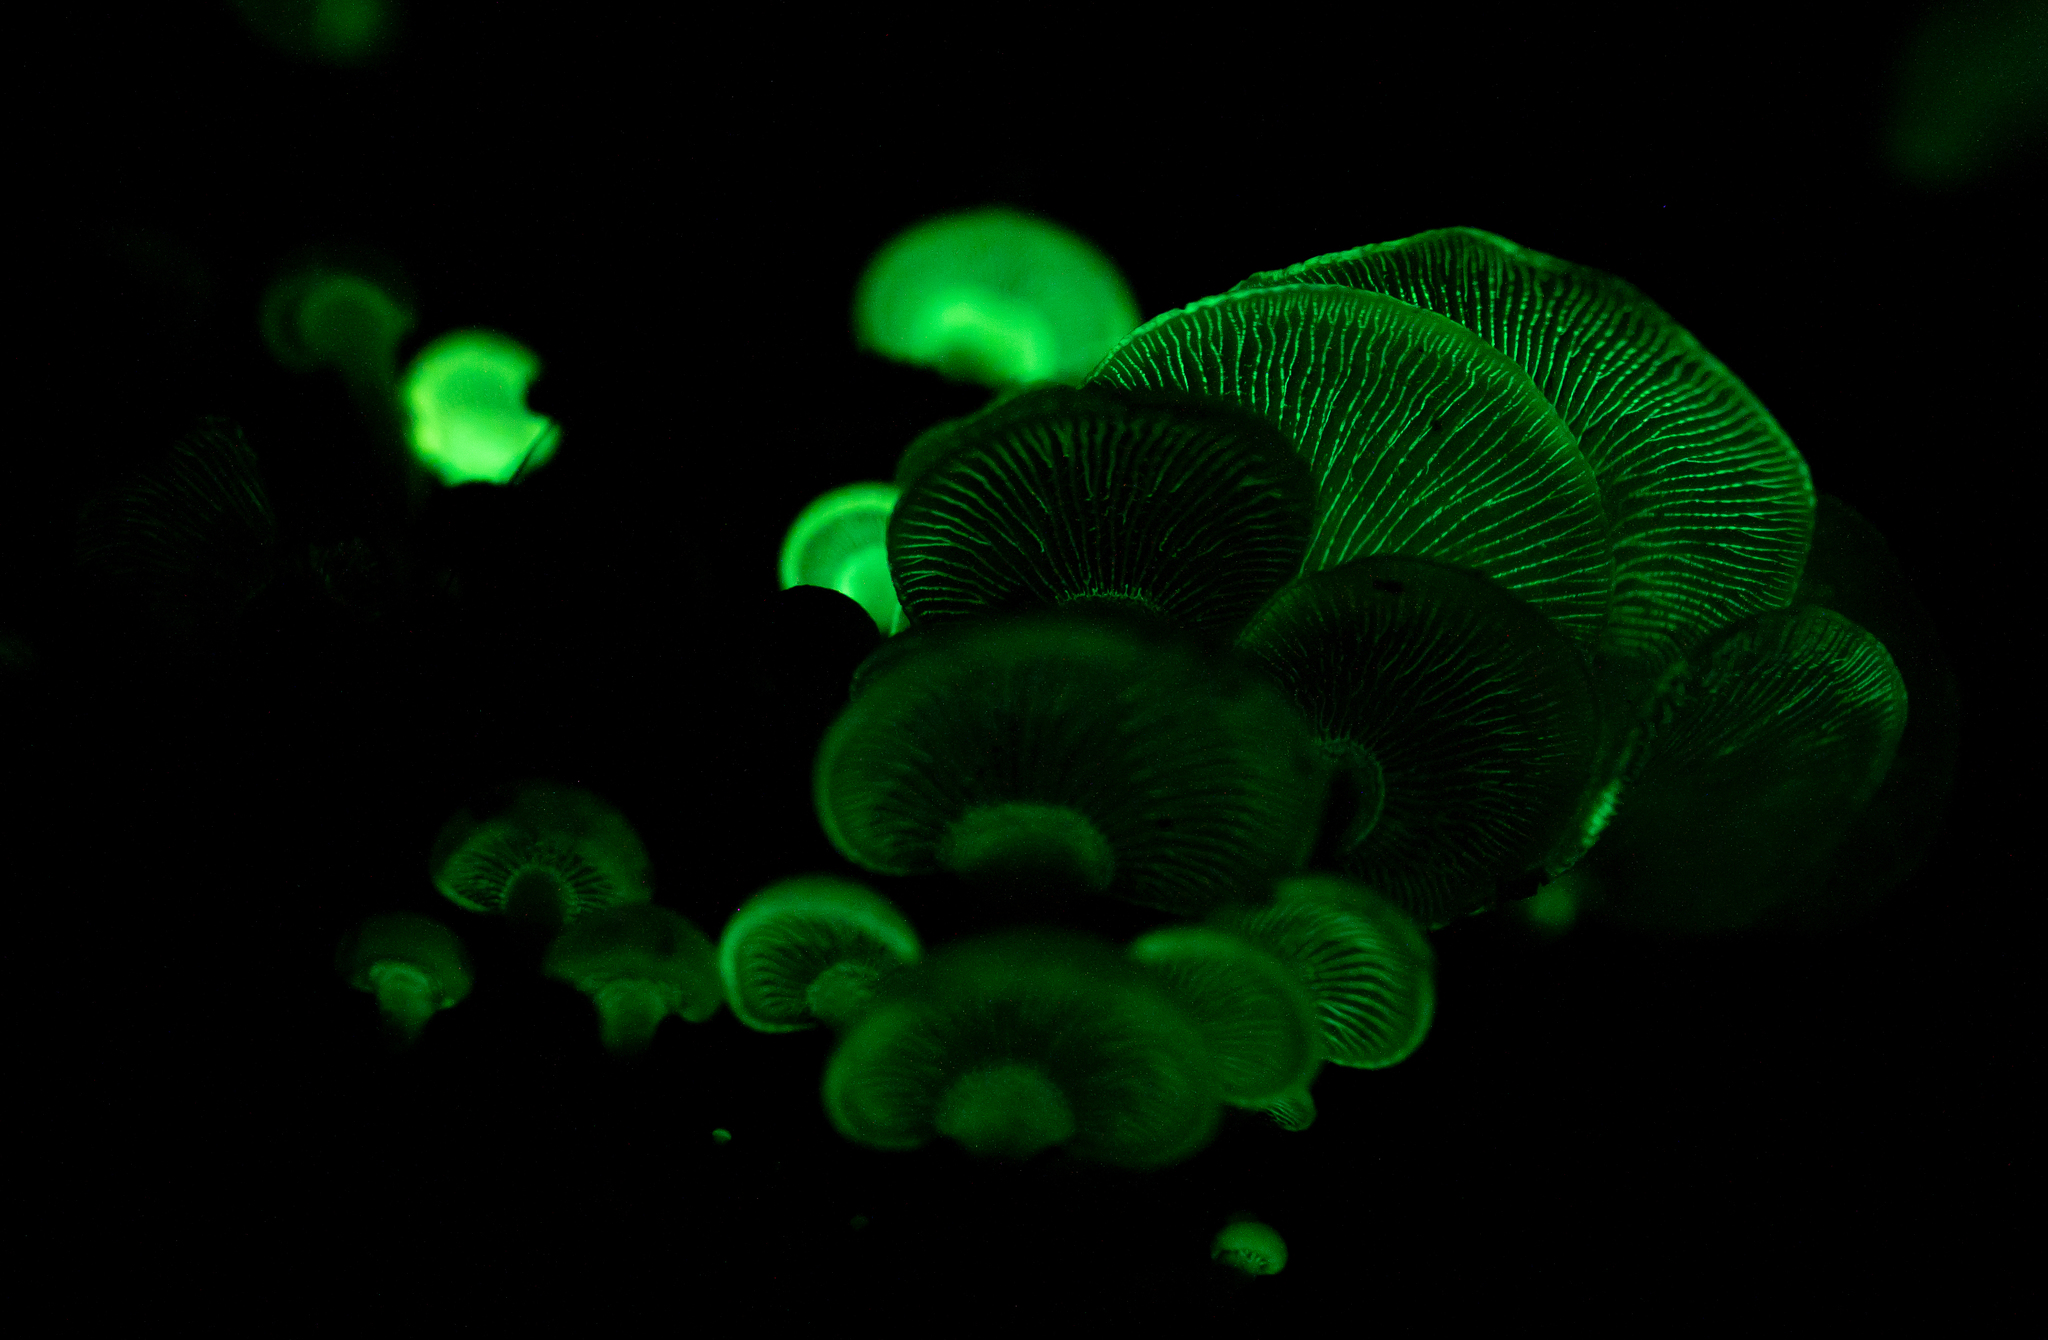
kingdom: Fungi
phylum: Basidiomycota
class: Agaricomycetes
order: Agaricales
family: Mycenaceae
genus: Panellus
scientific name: Panellus stipticus
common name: Bitter oysterling
